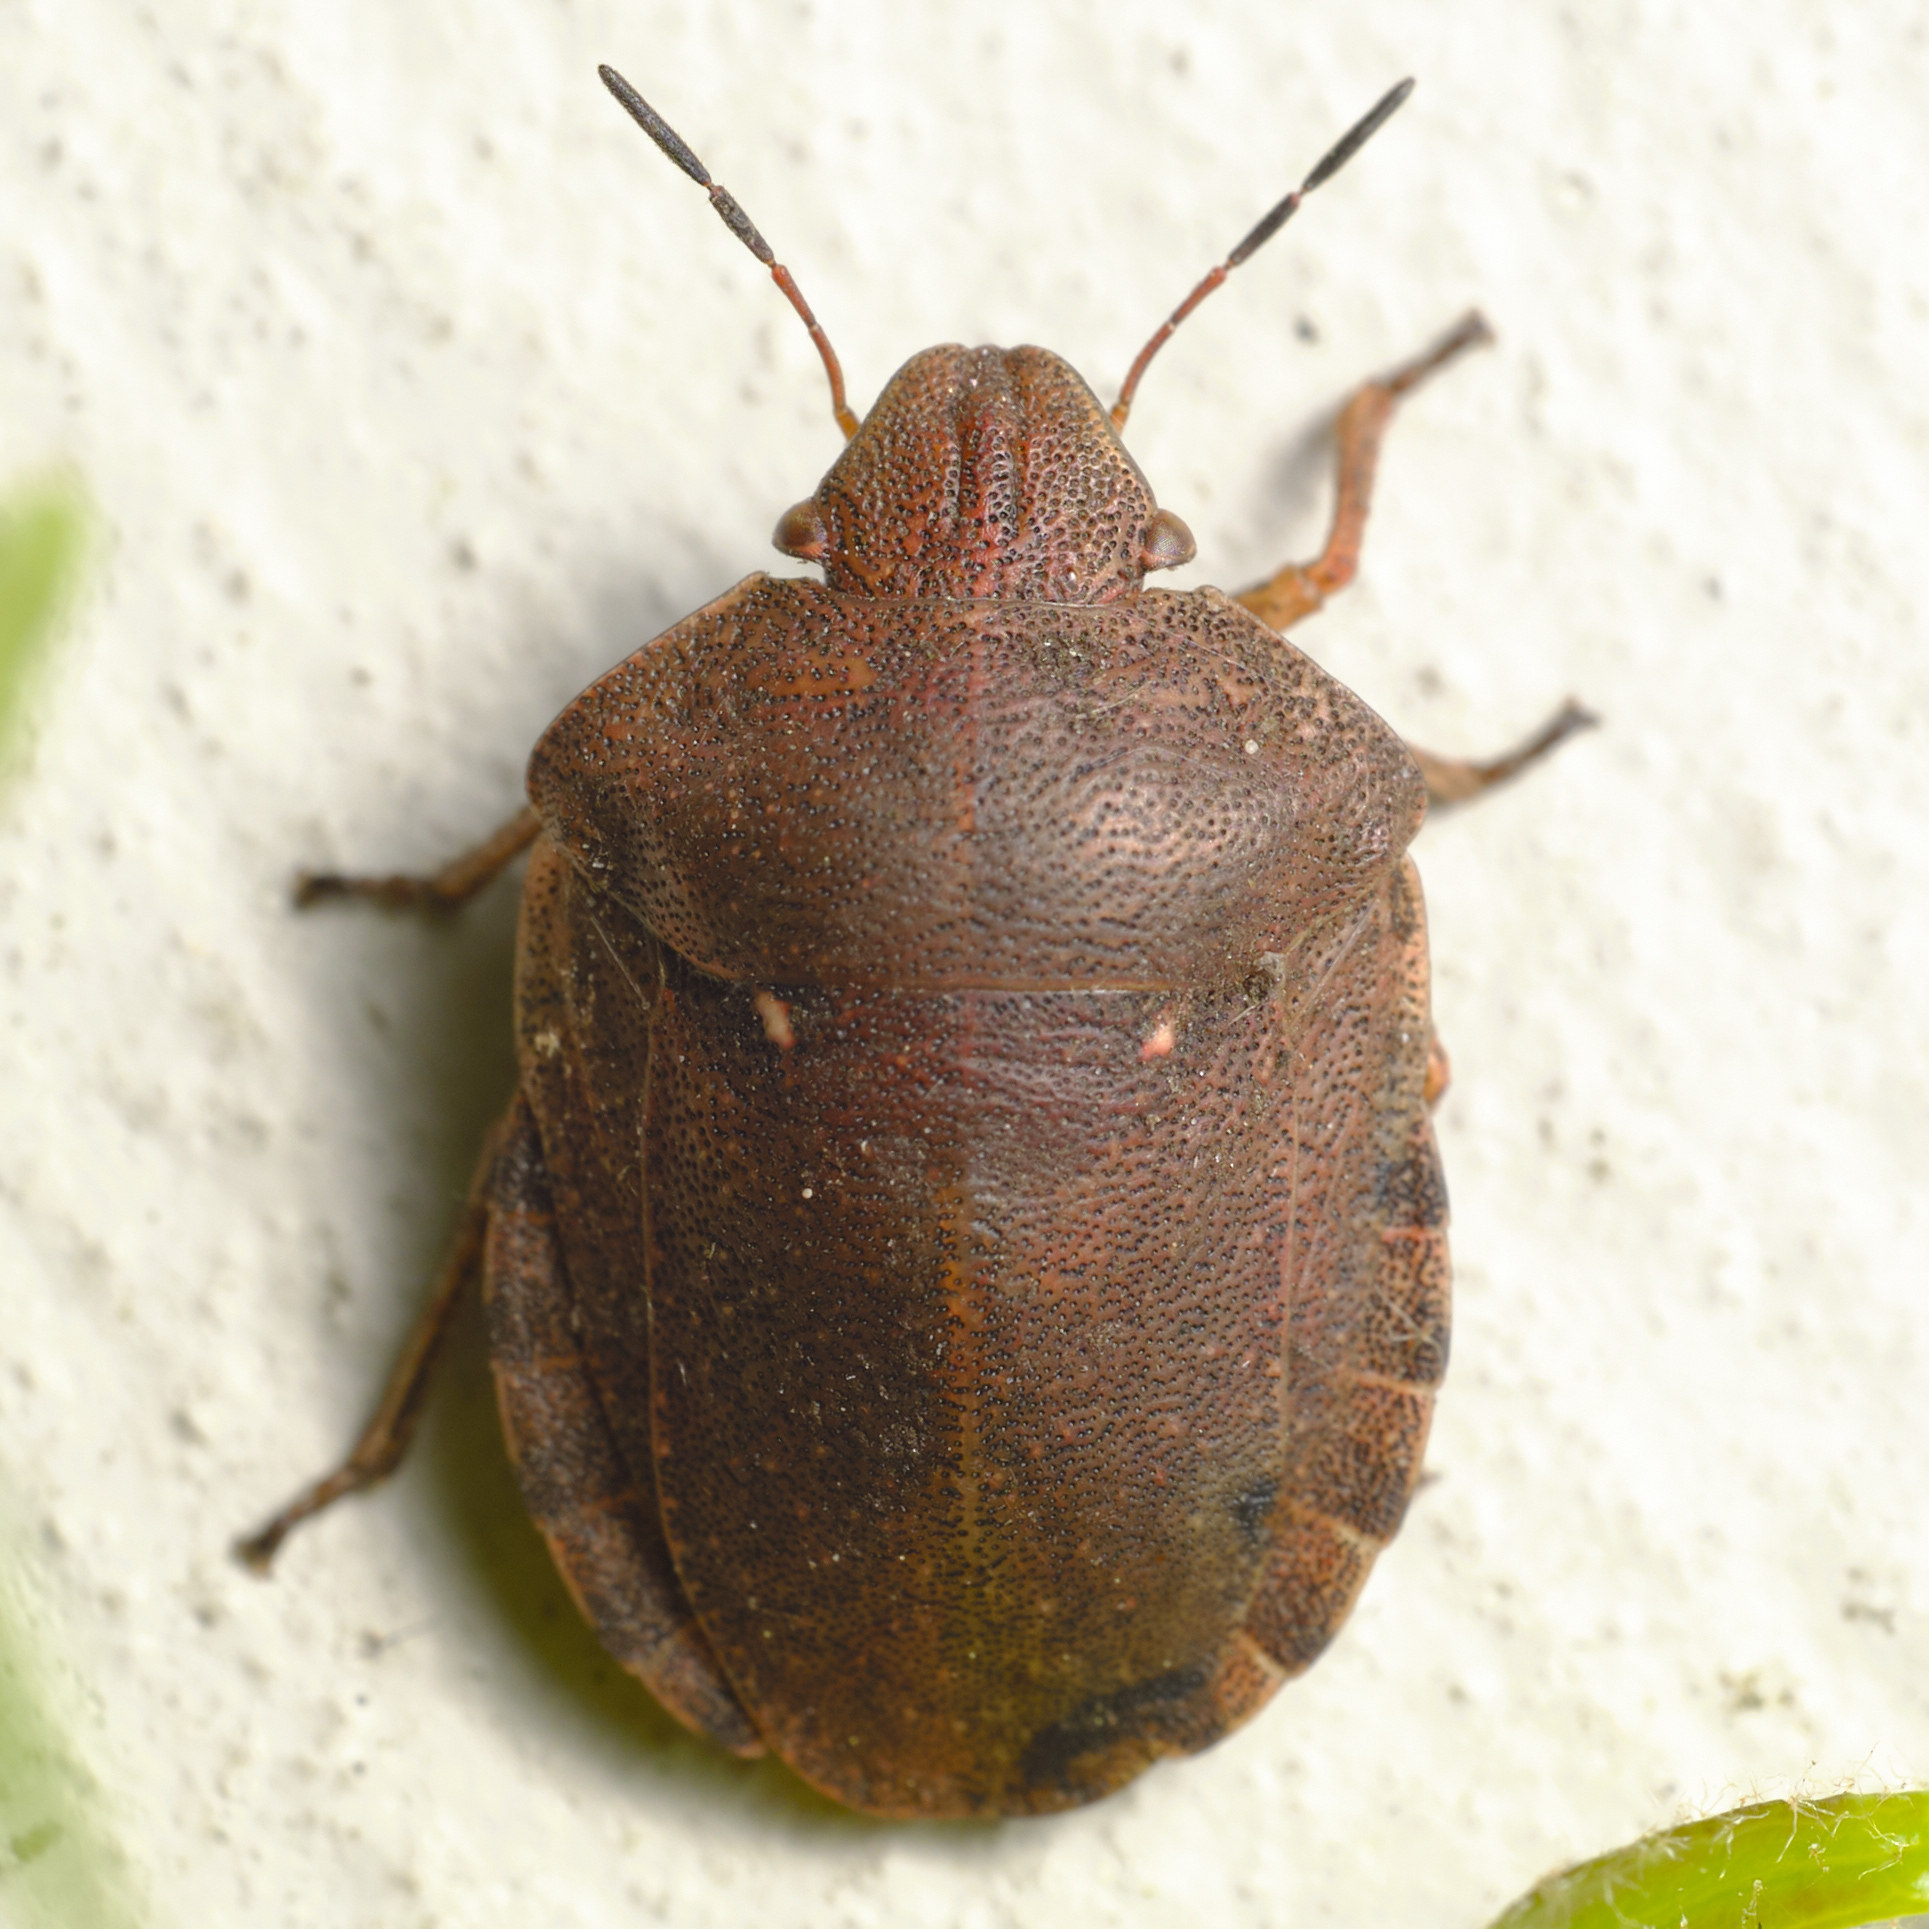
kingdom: Animalia
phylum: Arthropoda
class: Insecta
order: Hemiptera
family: Scutelleridae
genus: Eurygaster
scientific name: Eurygaster testudinaria
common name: Tortoise bug
